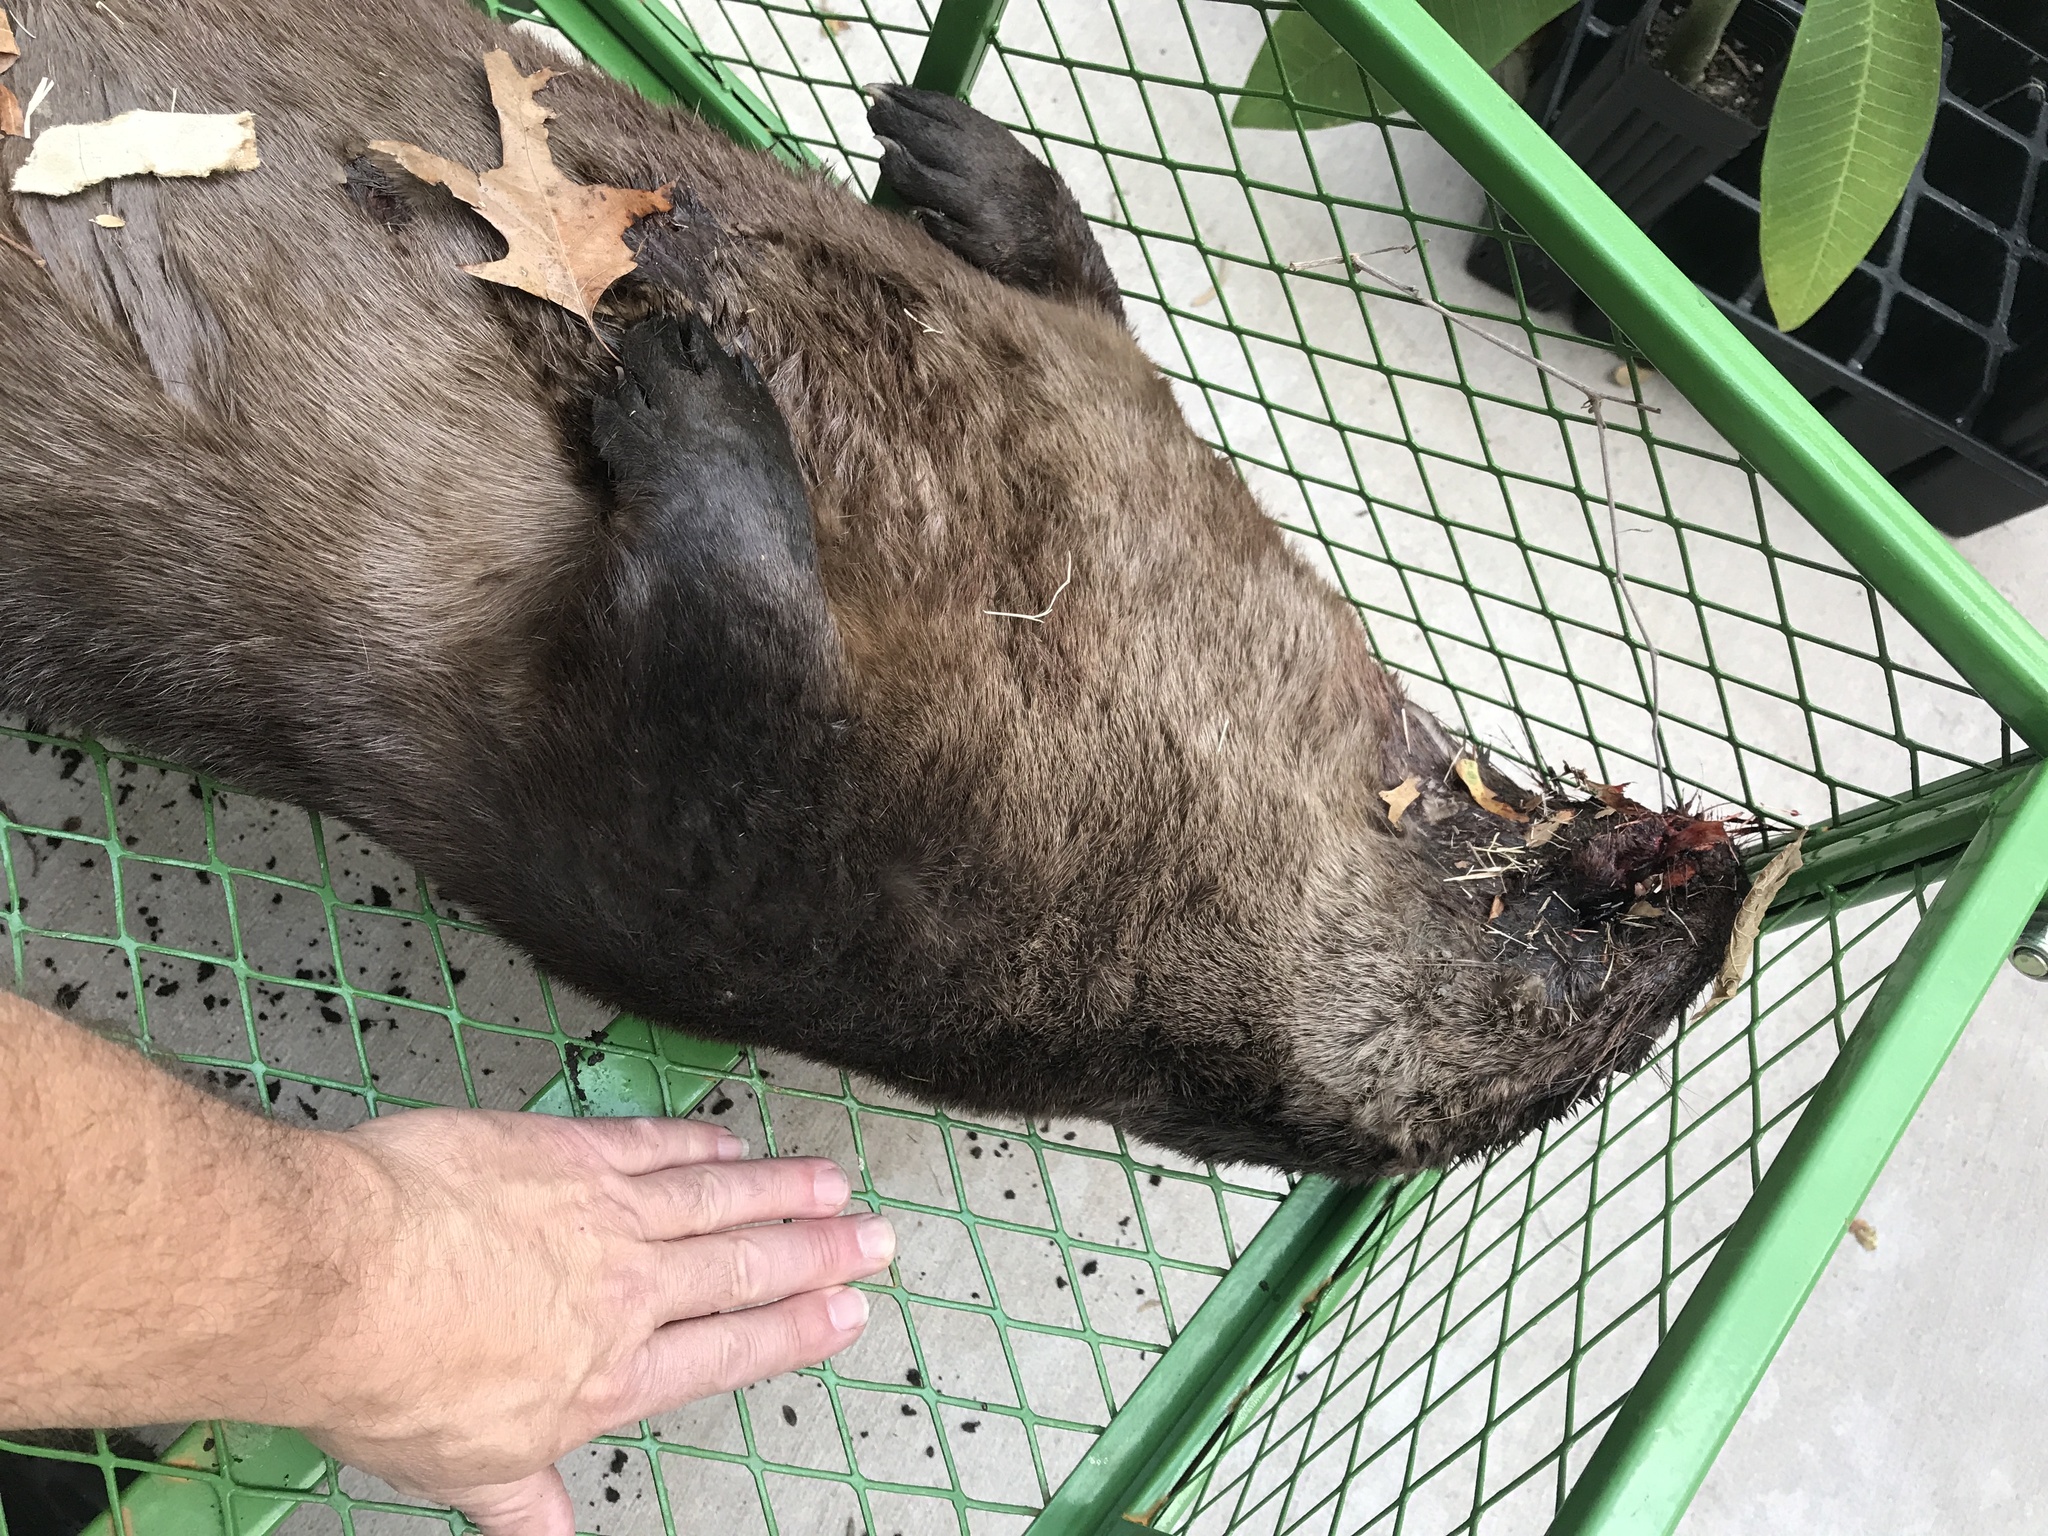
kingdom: Animalia
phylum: Chordata
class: Mammalia
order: Carnivora
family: Mustelidae
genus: Lontra
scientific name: Lontra canadensis
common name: North american river otter
